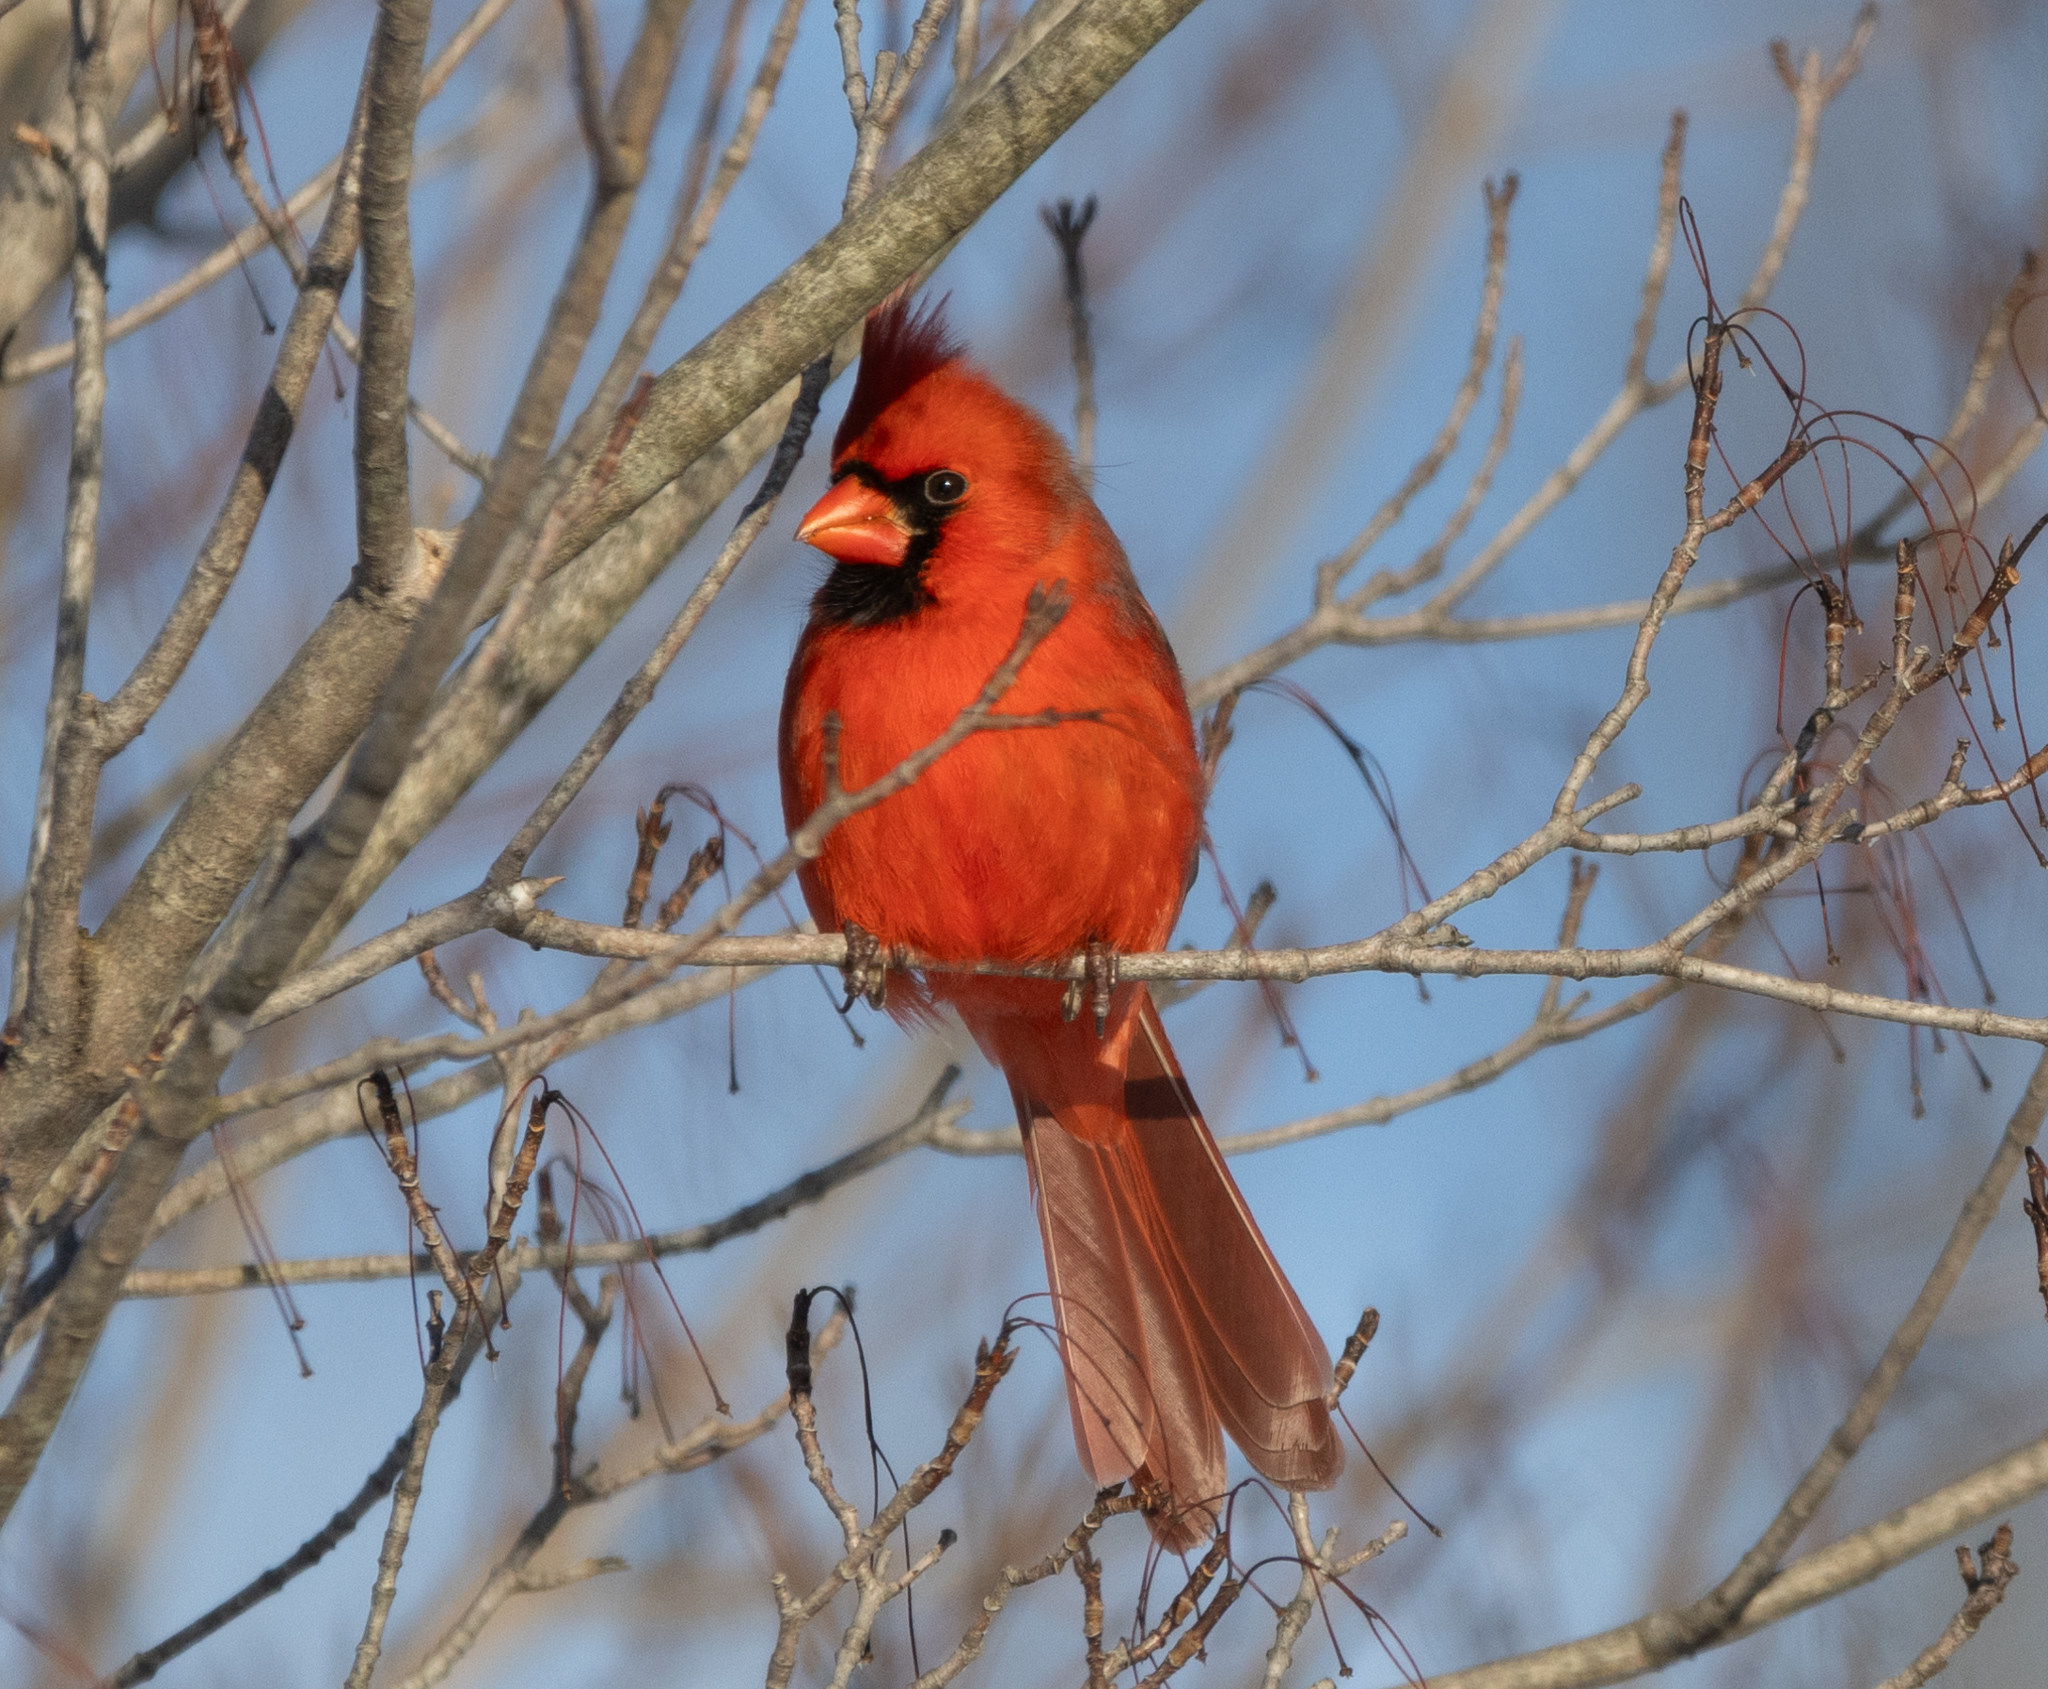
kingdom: Animalia
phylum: Chordata
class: Aves
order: Passeriformes
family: Cardinalidae
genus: Cardinalis
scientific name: Cardinalis cardinalis
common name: Northern cardinal
